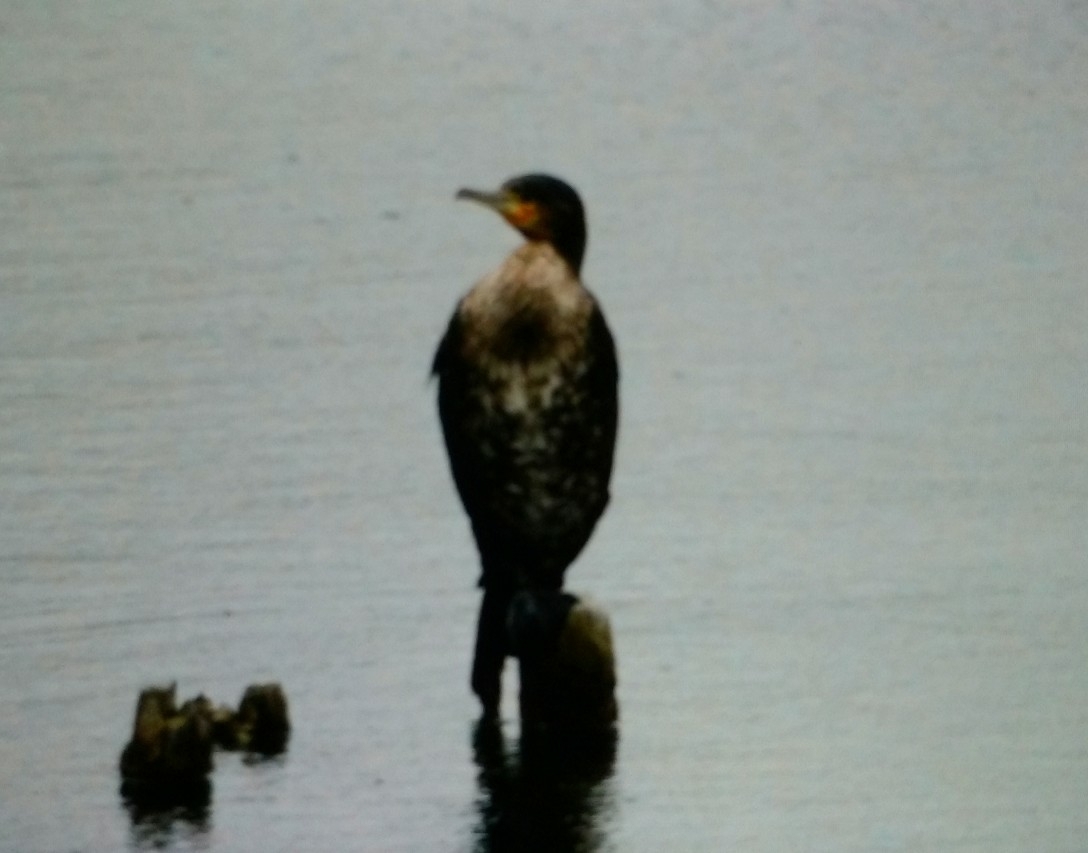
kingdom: Animalia
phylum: Chordata
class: Aves
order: Suliformes
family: Phalacrocoracidae
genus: Phalacrocorax
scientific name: Phalacrocorax carbo
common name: Great cormorant
